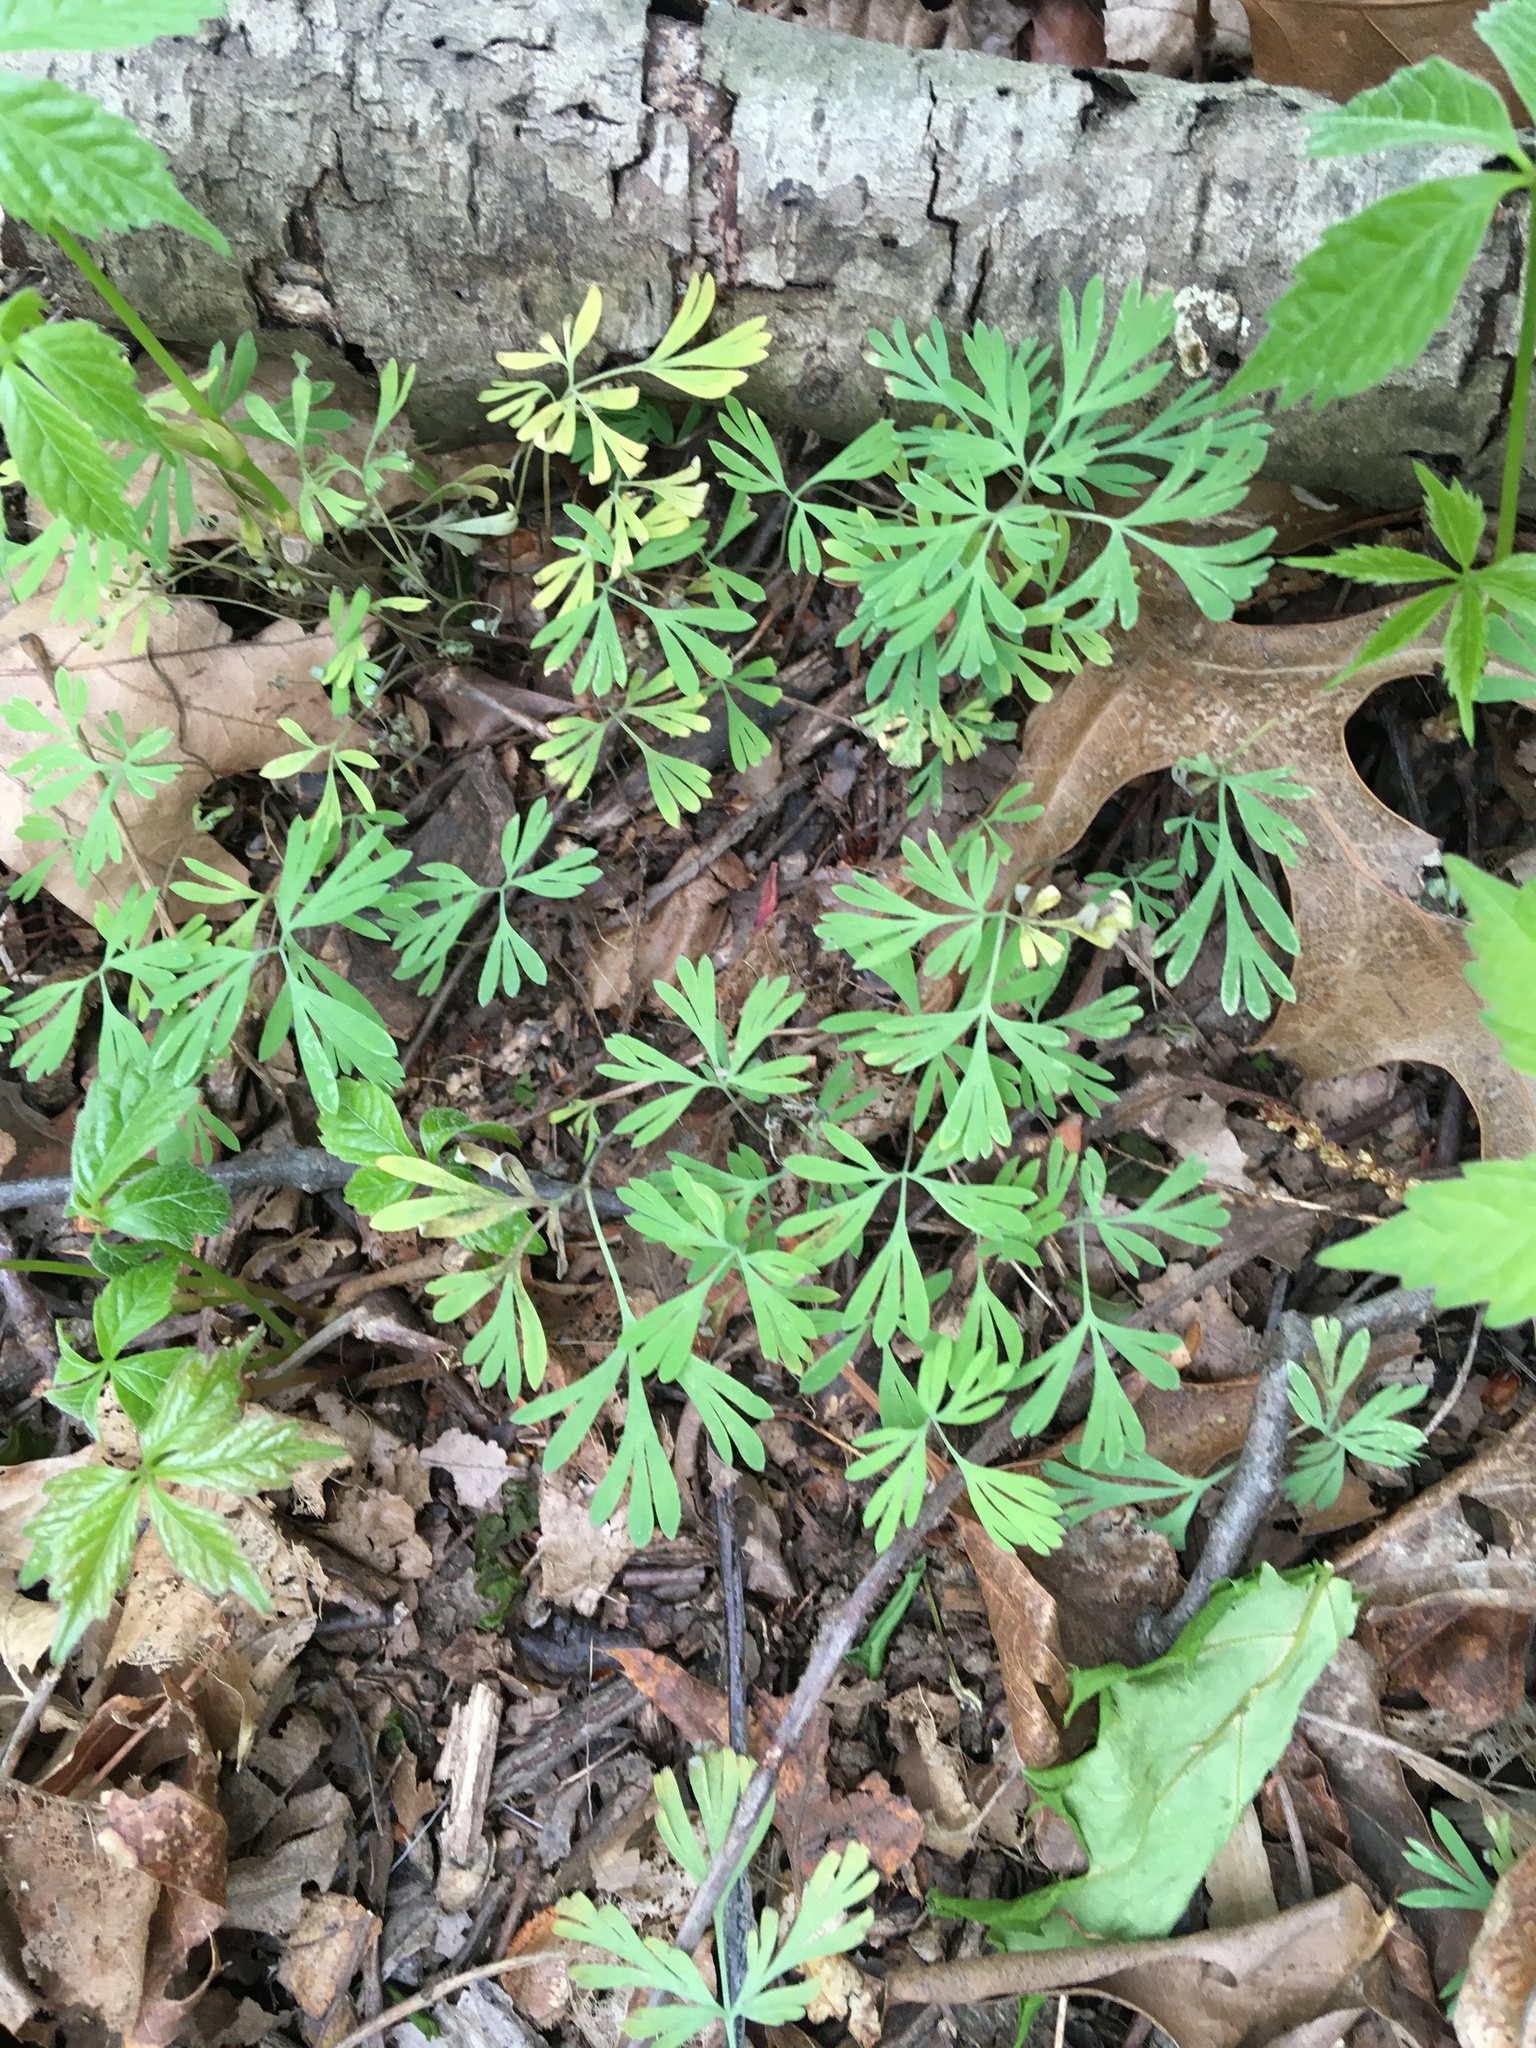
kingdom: Plantae
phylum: Tracheophyta
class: Magnoliopsida
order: Ranunculales
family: Papaveraceae
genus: Dicentra
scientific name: Dicentra cucullaria
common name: Dutchman's breeches
